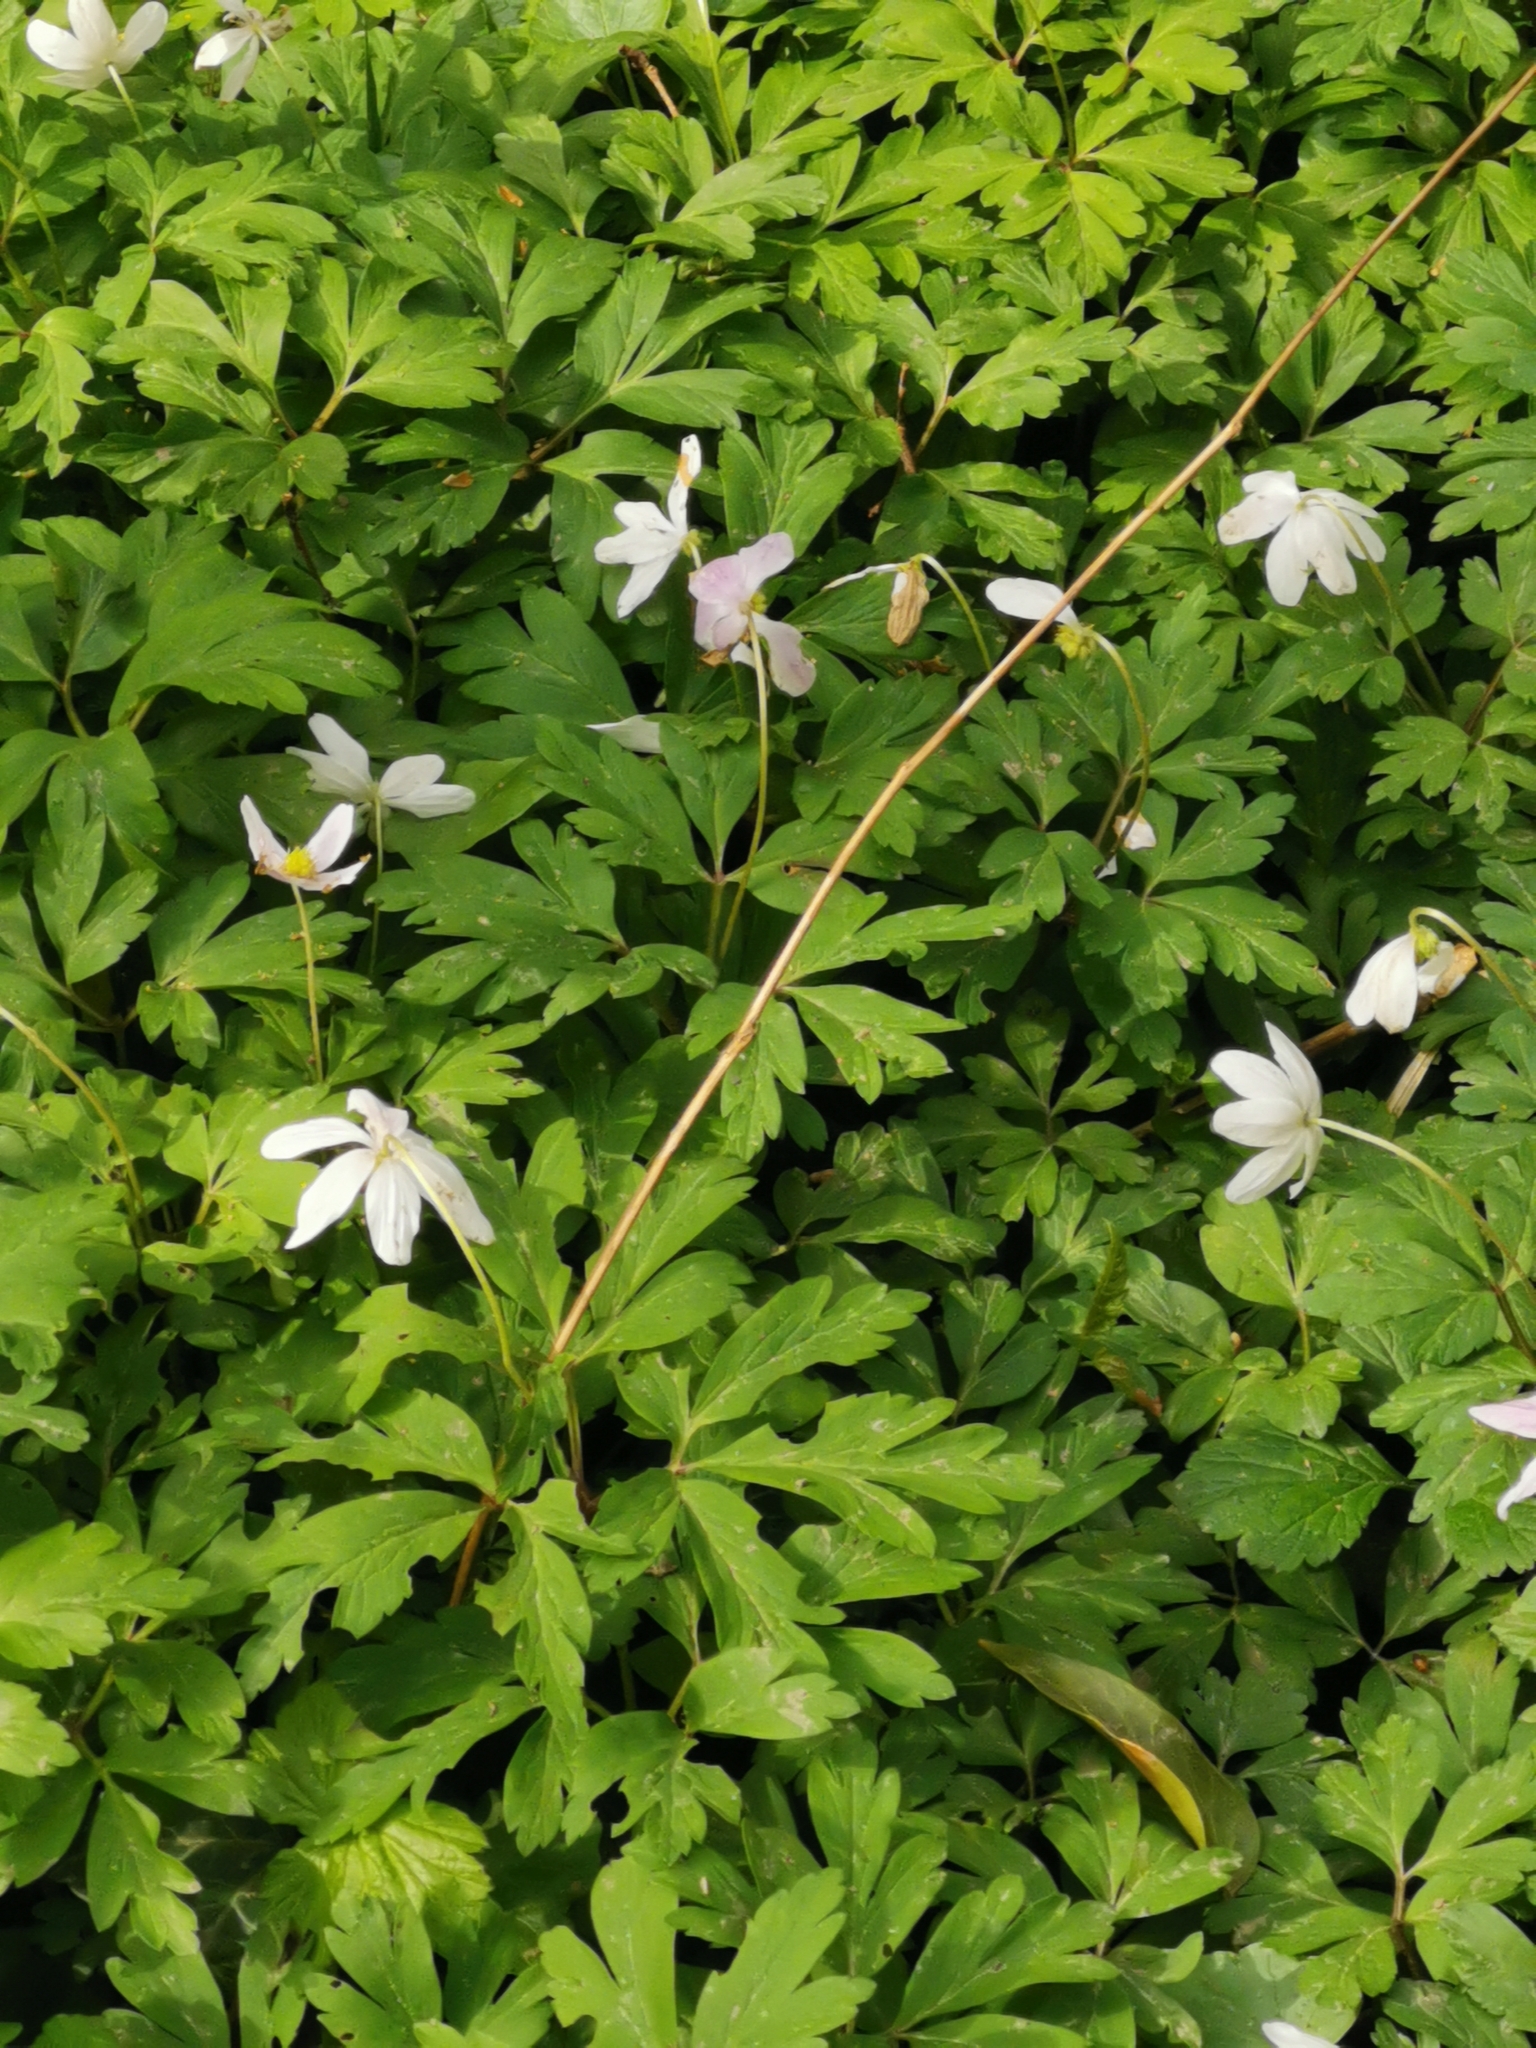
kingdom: Plantae
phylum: Tracheophyta
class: Magnoliopsida
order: Ranunculales
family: Ranunculaceae
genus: Anemone
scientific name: Anemone nemorosa
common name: Wood anemone
